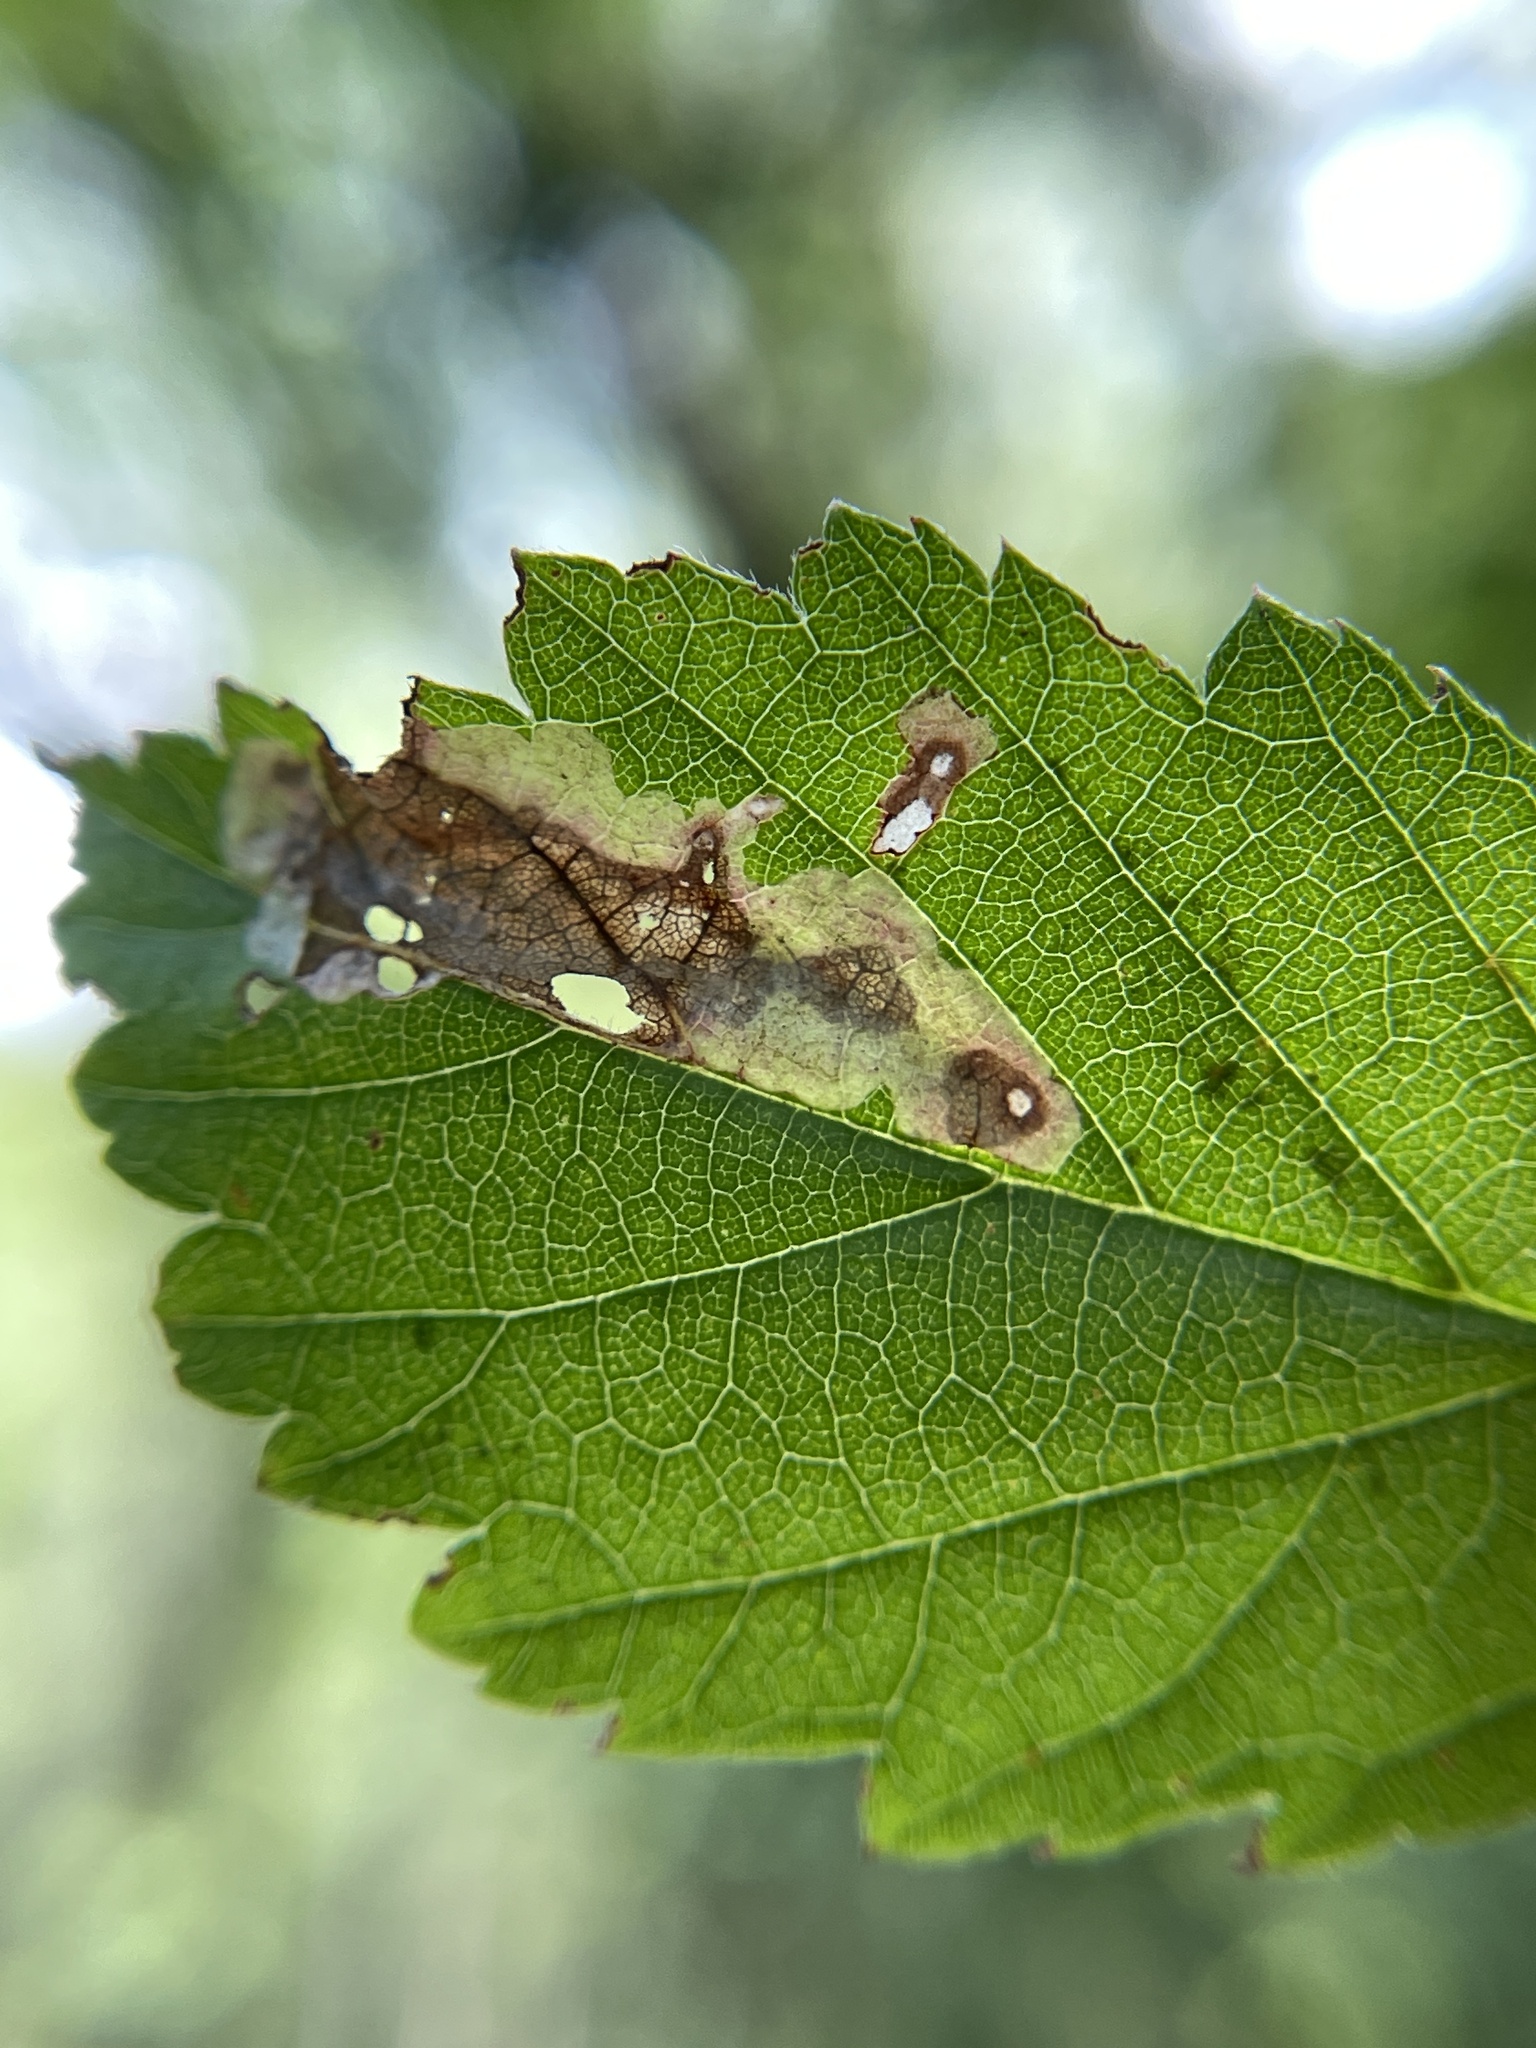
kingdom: Animalia
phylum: Arthropoda
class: Insecta
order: Lepidoptera
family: Tischeriidae
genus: Coptotriche
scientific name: Coptotriche aenea
